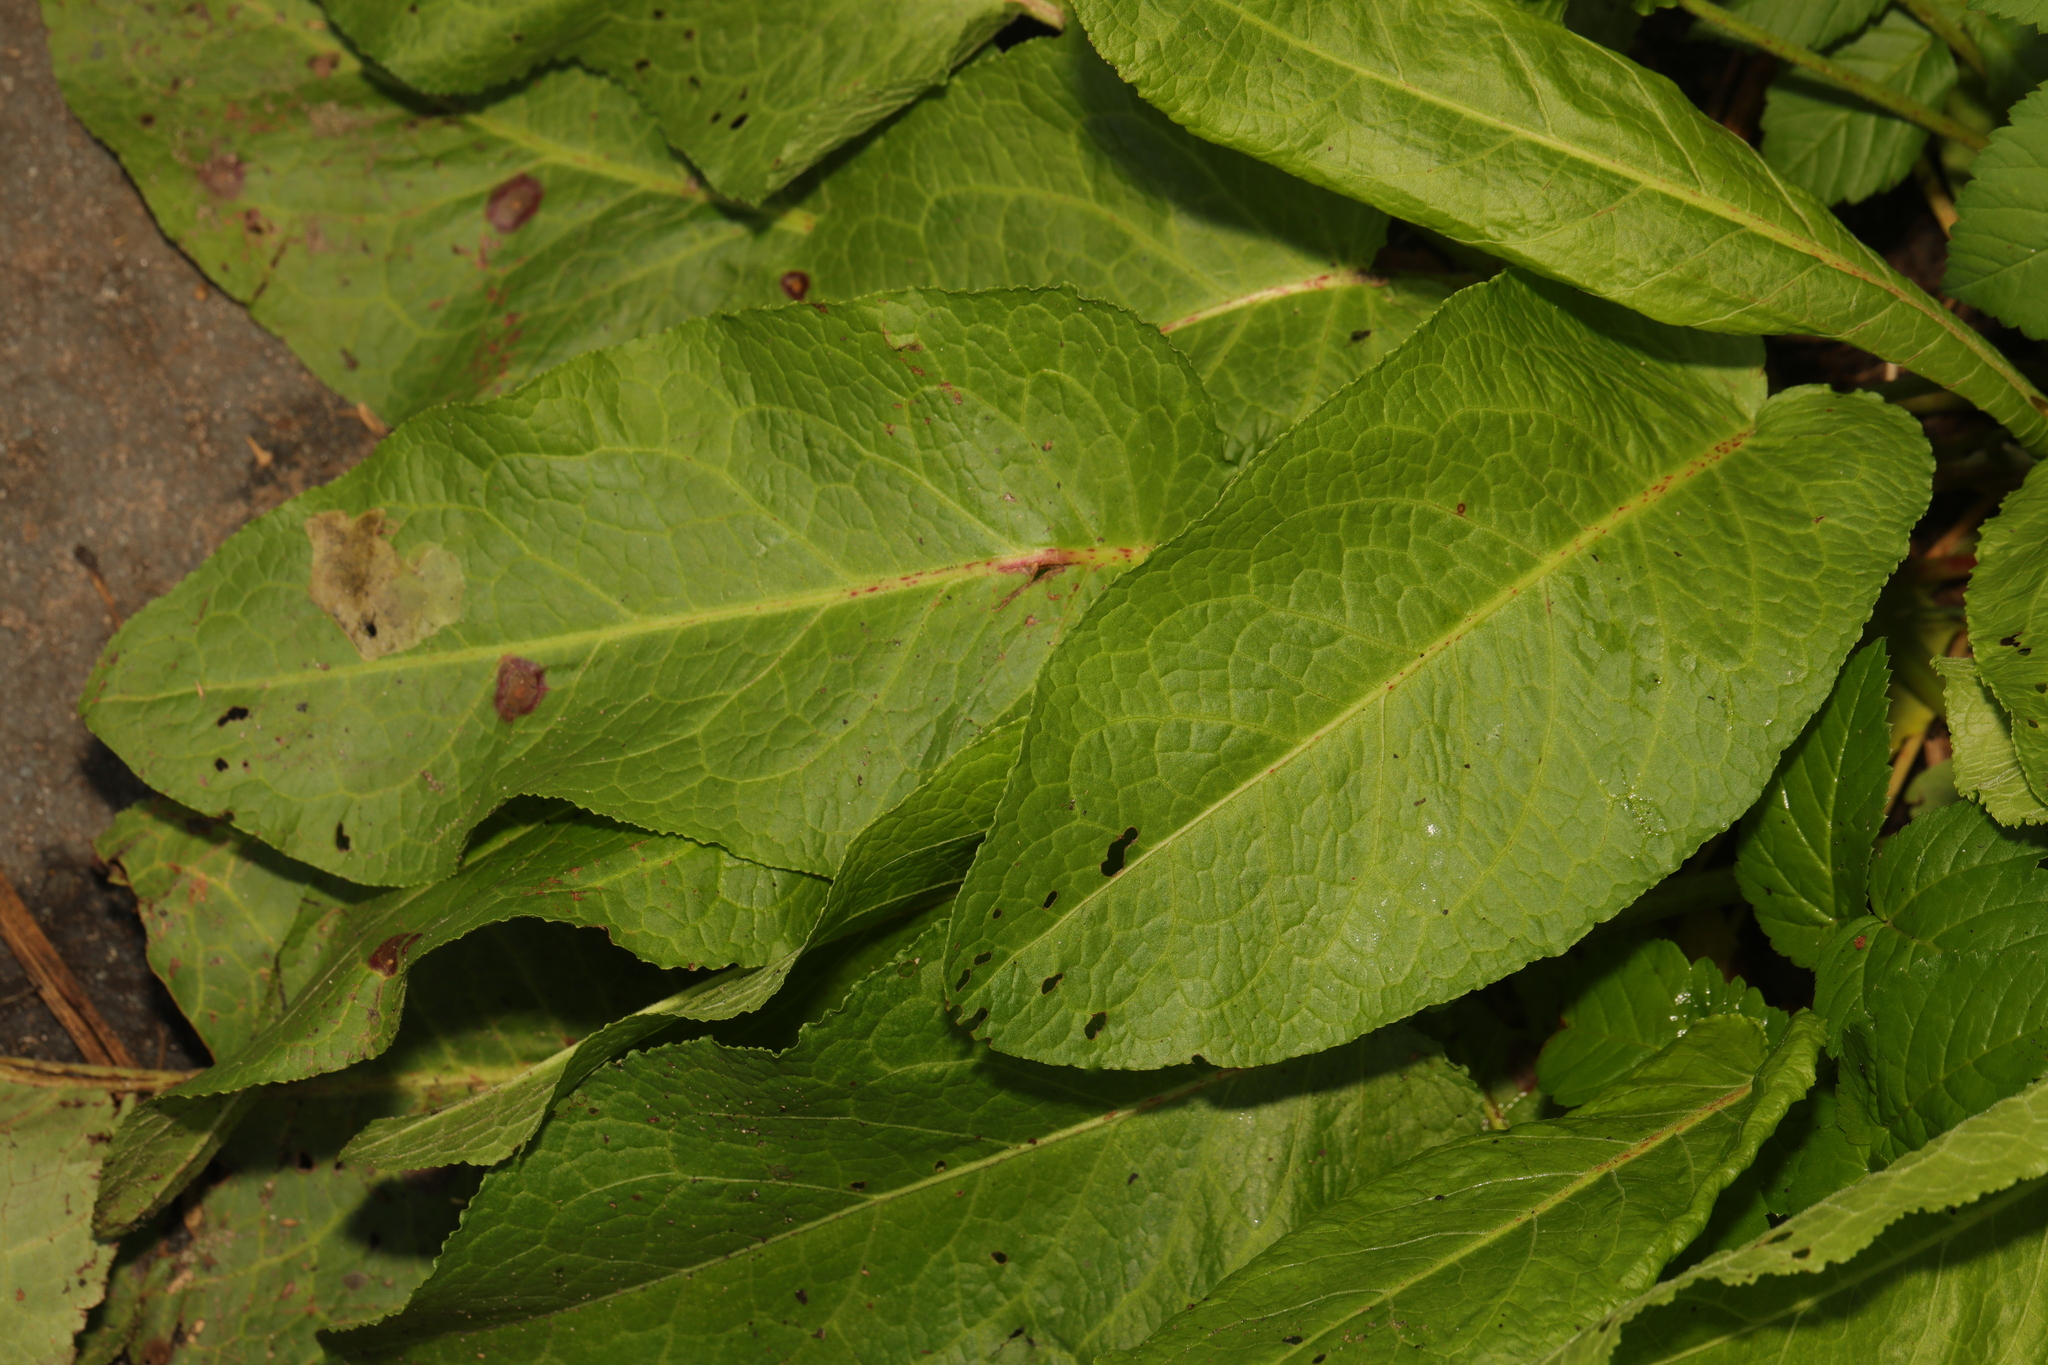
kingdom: Plantae
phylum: Tracheophyta
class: Magnoliopsida
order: Caryophyllales
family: Polygonaceae
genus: Rumex
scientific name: Rumex obtusifolius
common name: Bitter dock
